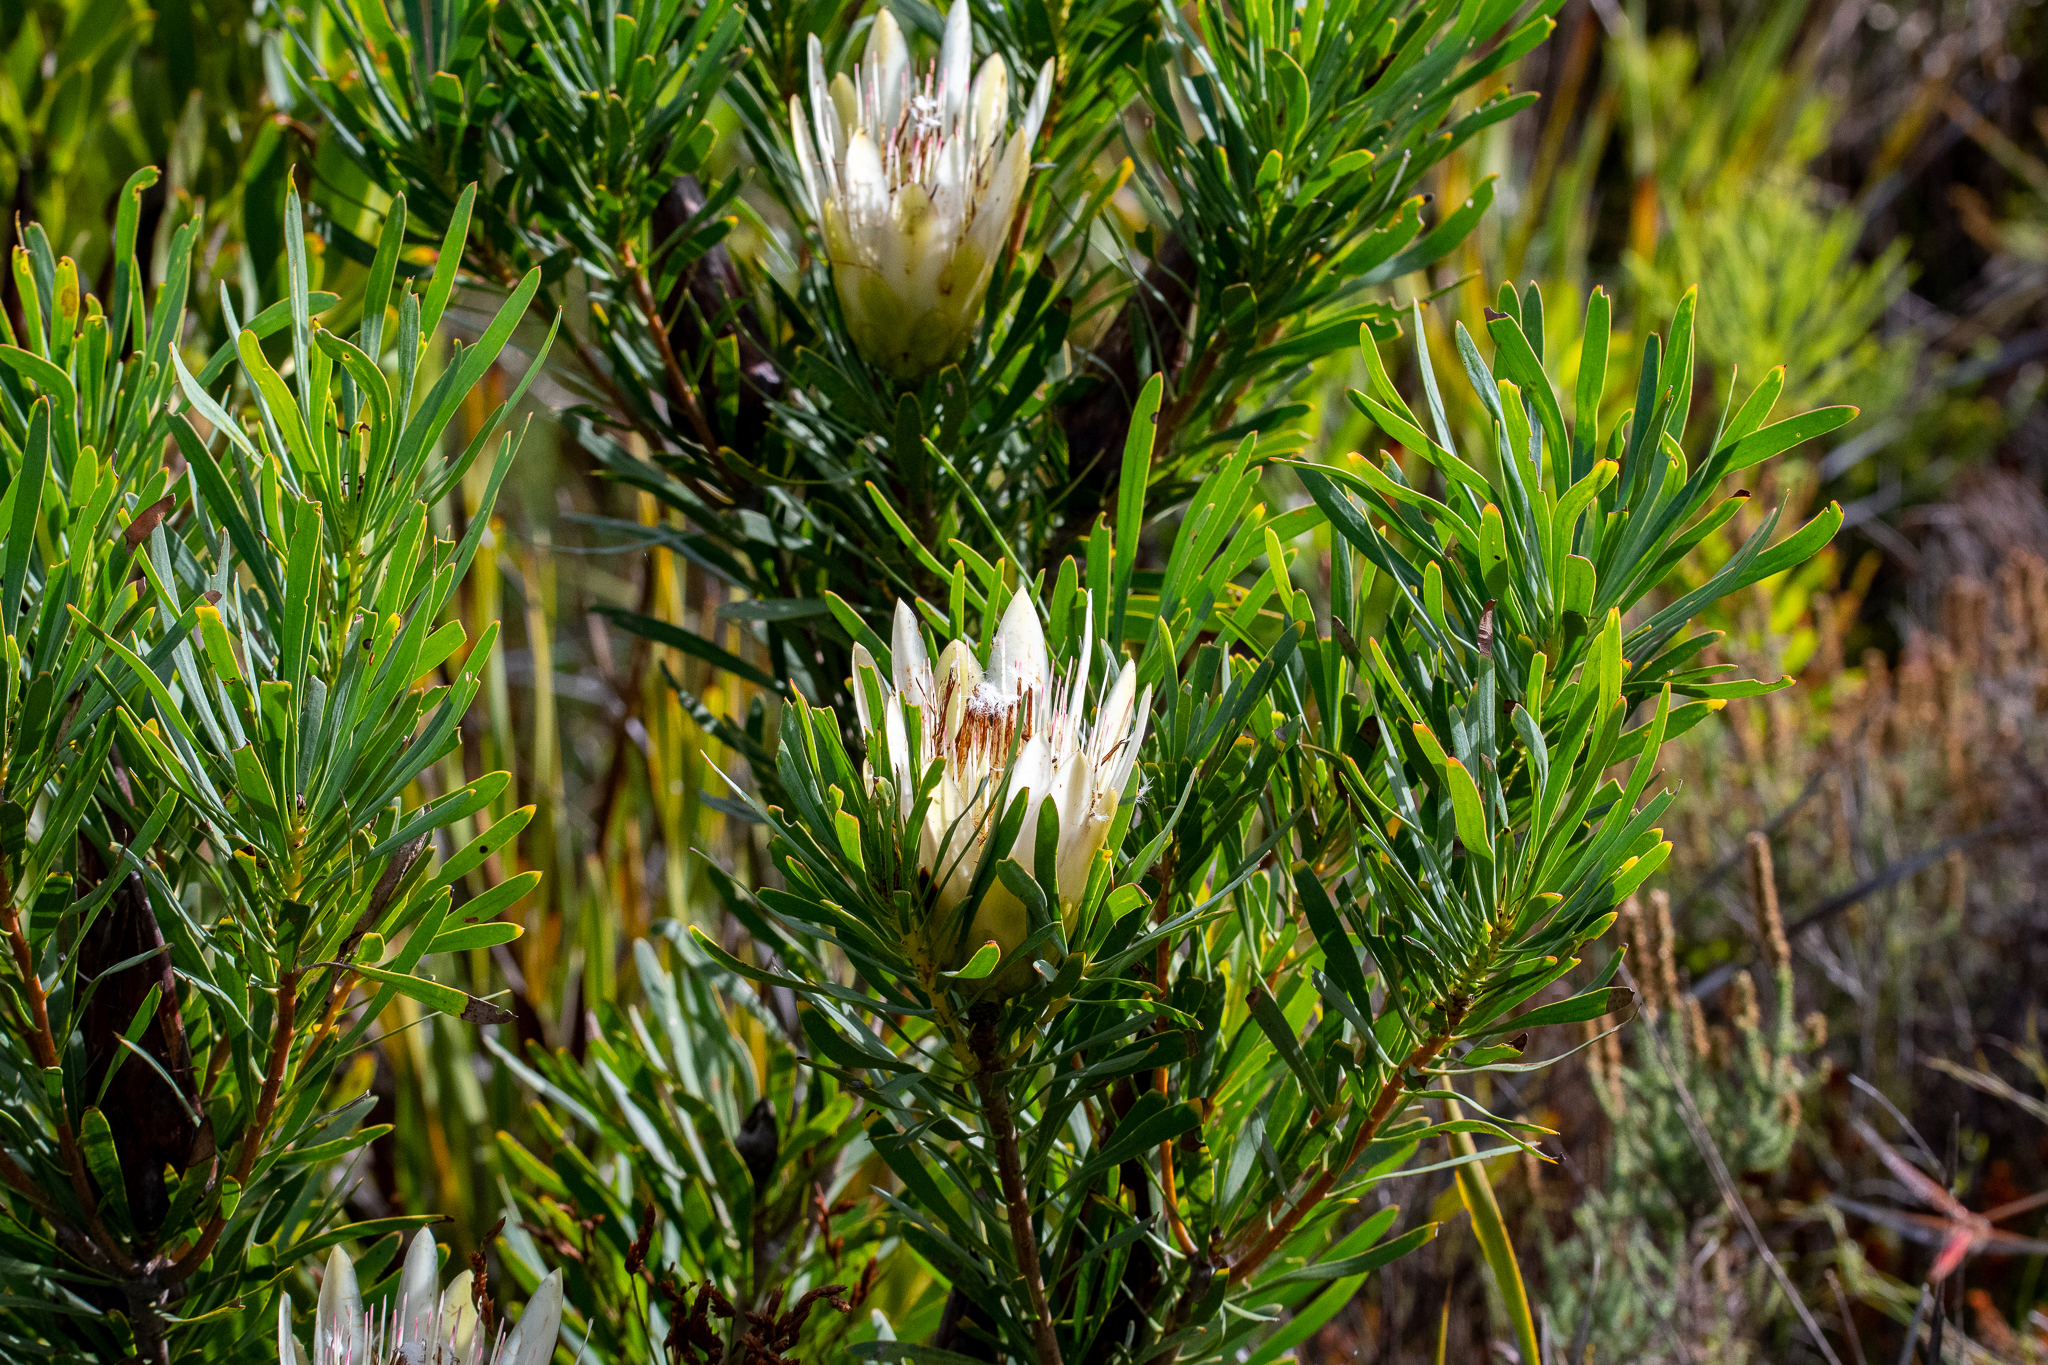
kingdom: Plantae
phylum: Tracheophyta
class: Magnoliopsida
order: Proteales
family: Proteaceae
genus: Protea
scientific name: Protea repens
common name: Sugarbush
